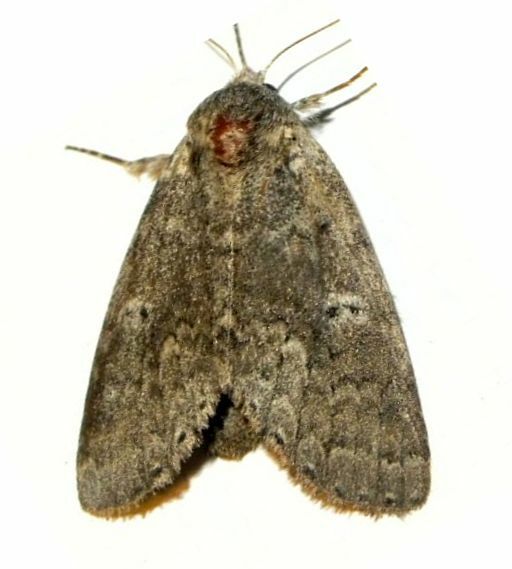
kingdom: Animalia
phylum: Arthropoda
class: Insecta
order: Lepidoptera
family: Notodontidae
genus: Lochmaeus
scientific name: Lochmaeus manteo
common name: Variable oakleaf caterpillar moth
